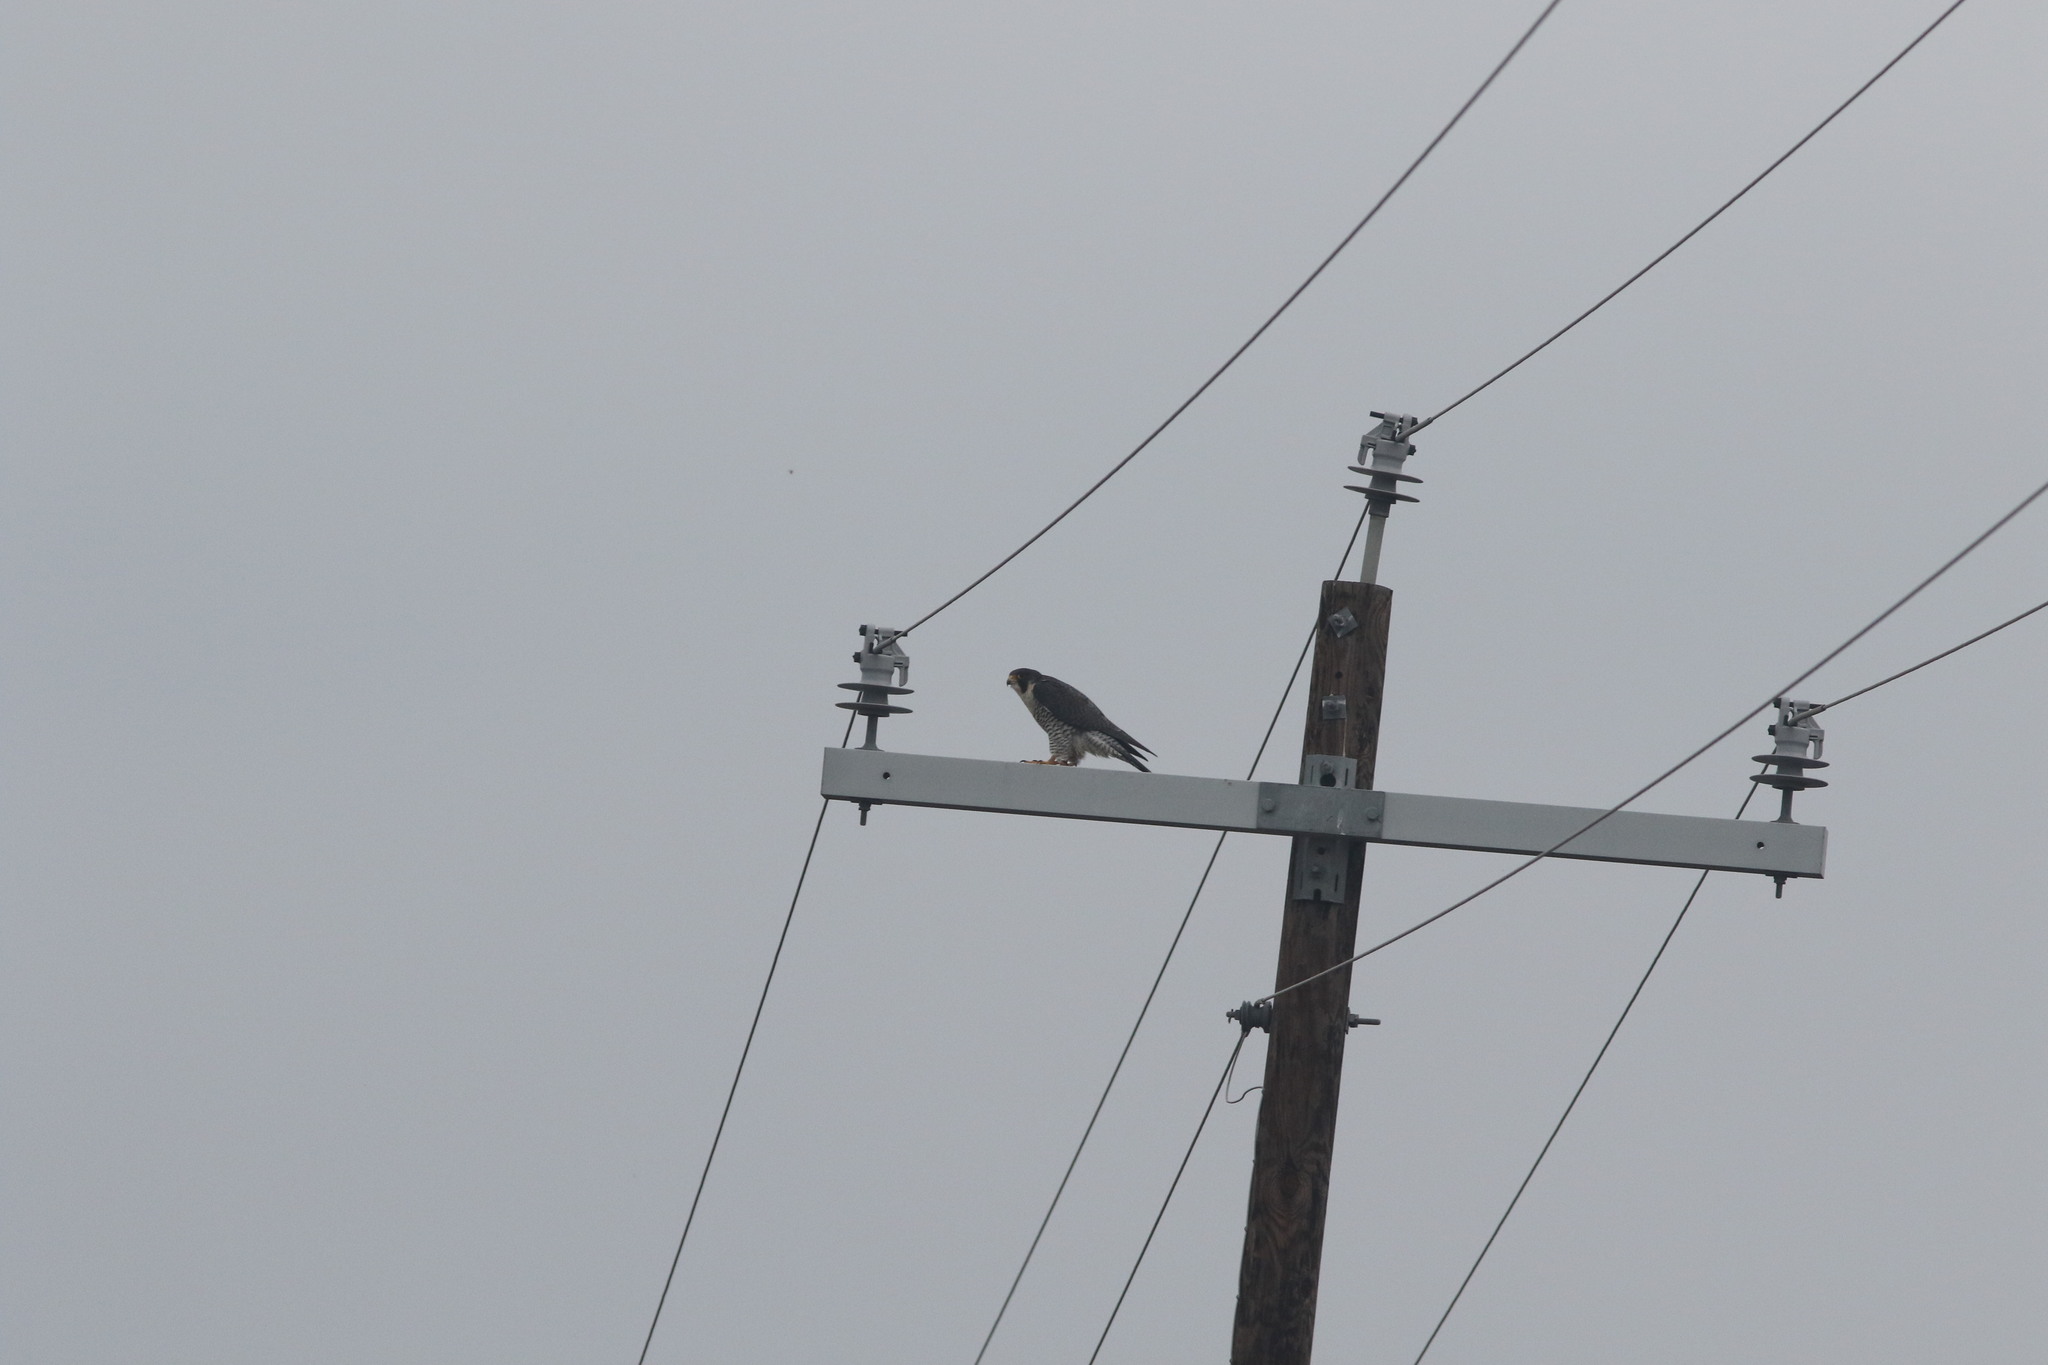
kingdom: Animalia
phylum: Chordata
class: Aves
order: Falconiformes
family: Falconidae
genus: Falco
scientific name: Falco peregrinus
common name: Peregrine falcon
